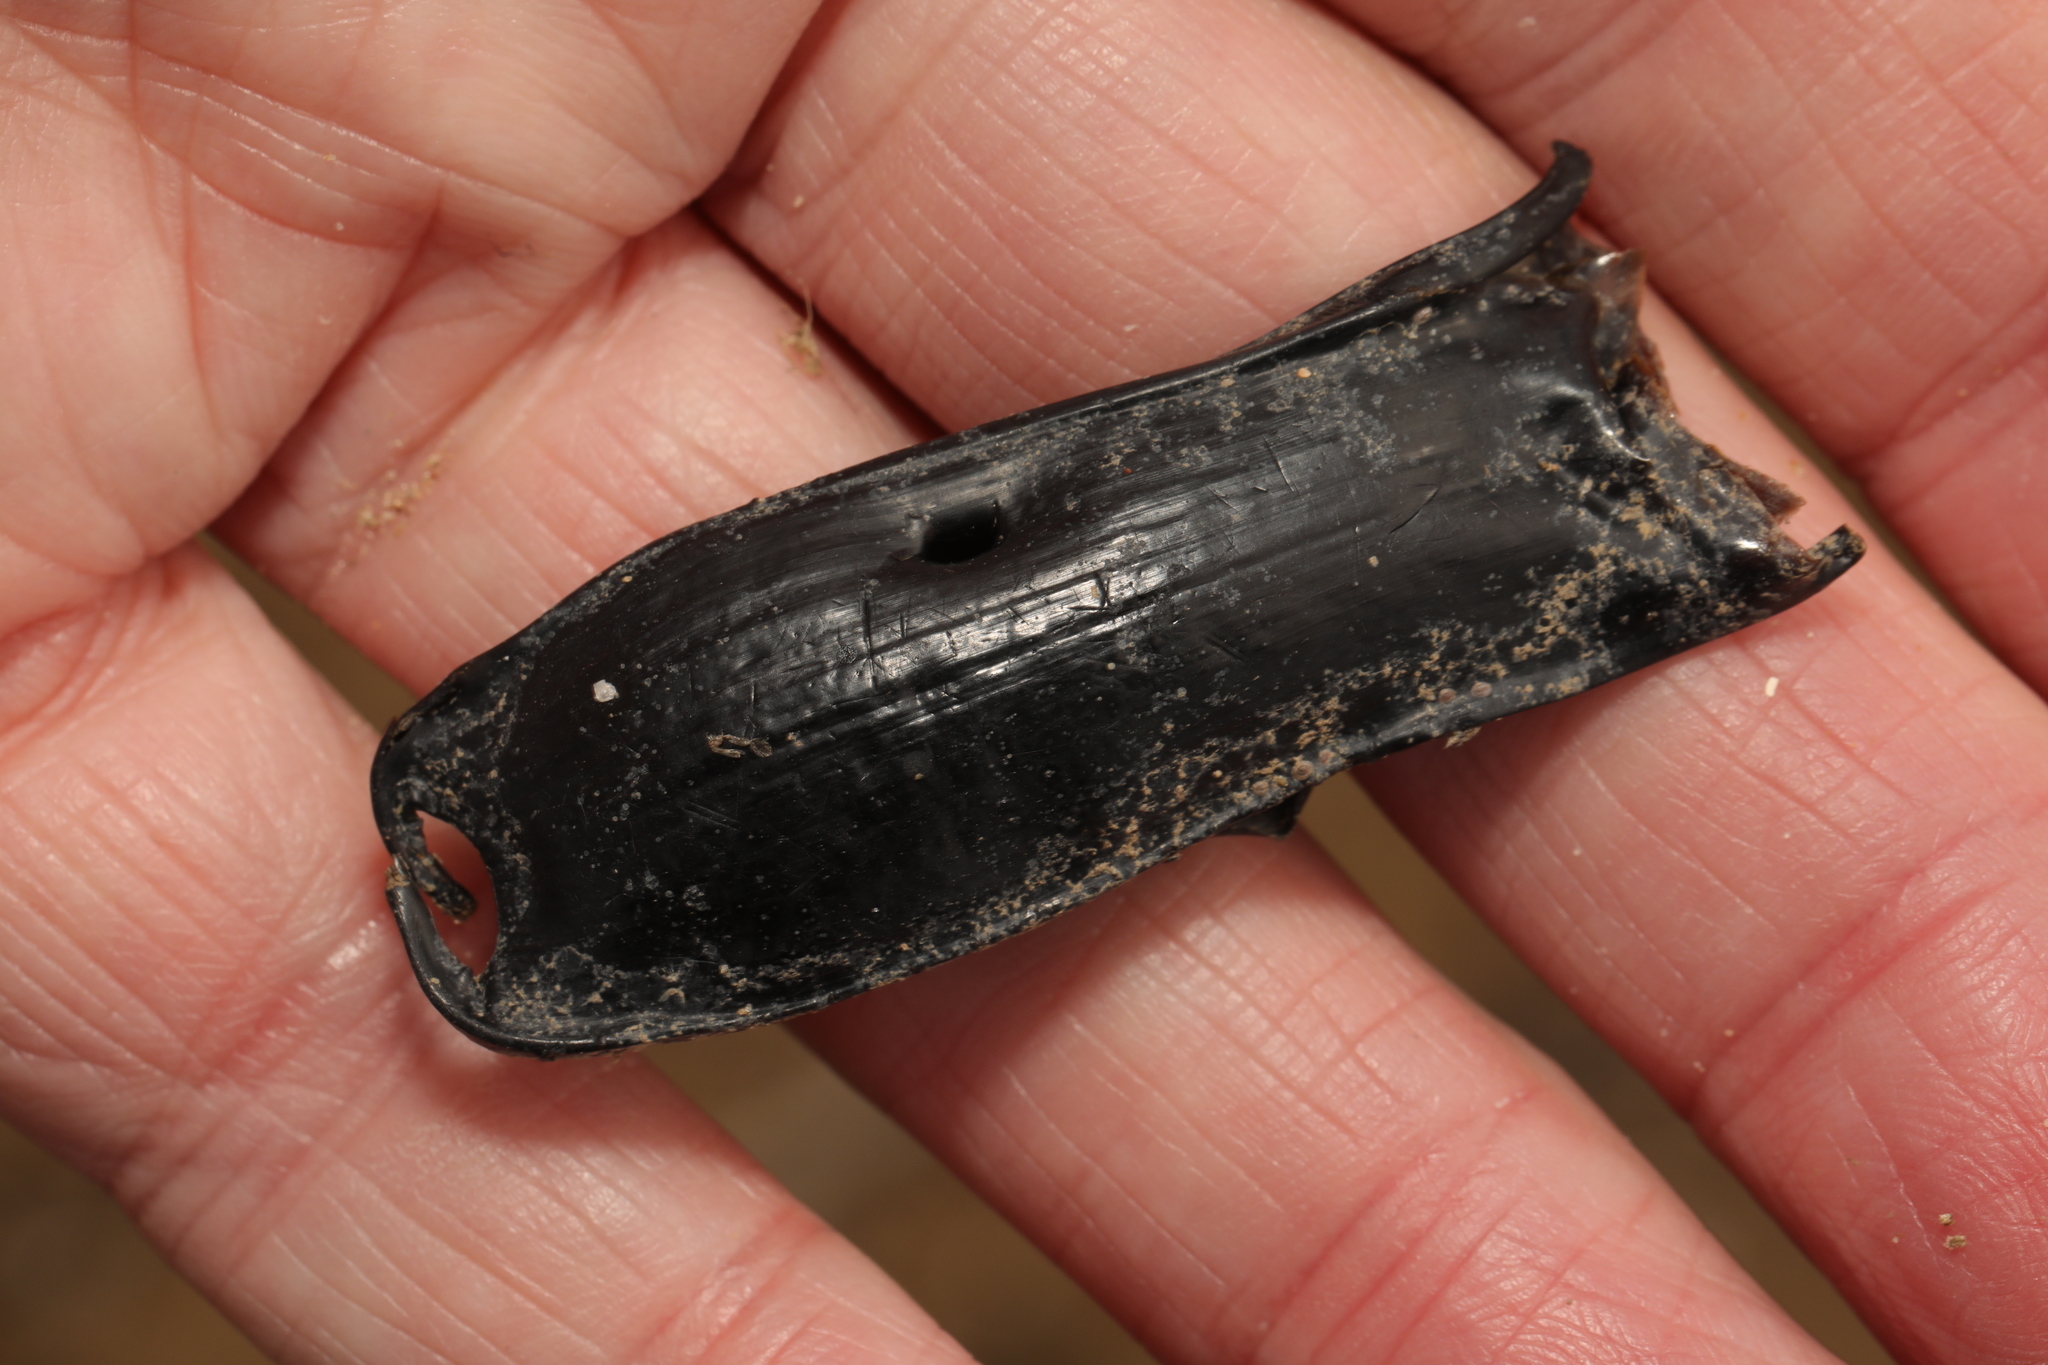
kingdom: Animalia
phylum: Chordata
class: Elasmobranchii
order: Carcharhiniformes
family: Scyliorhinidae
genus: Scyliorhinus
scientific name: Scyliorhinus canicula
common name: Lesser spotted dogfish
